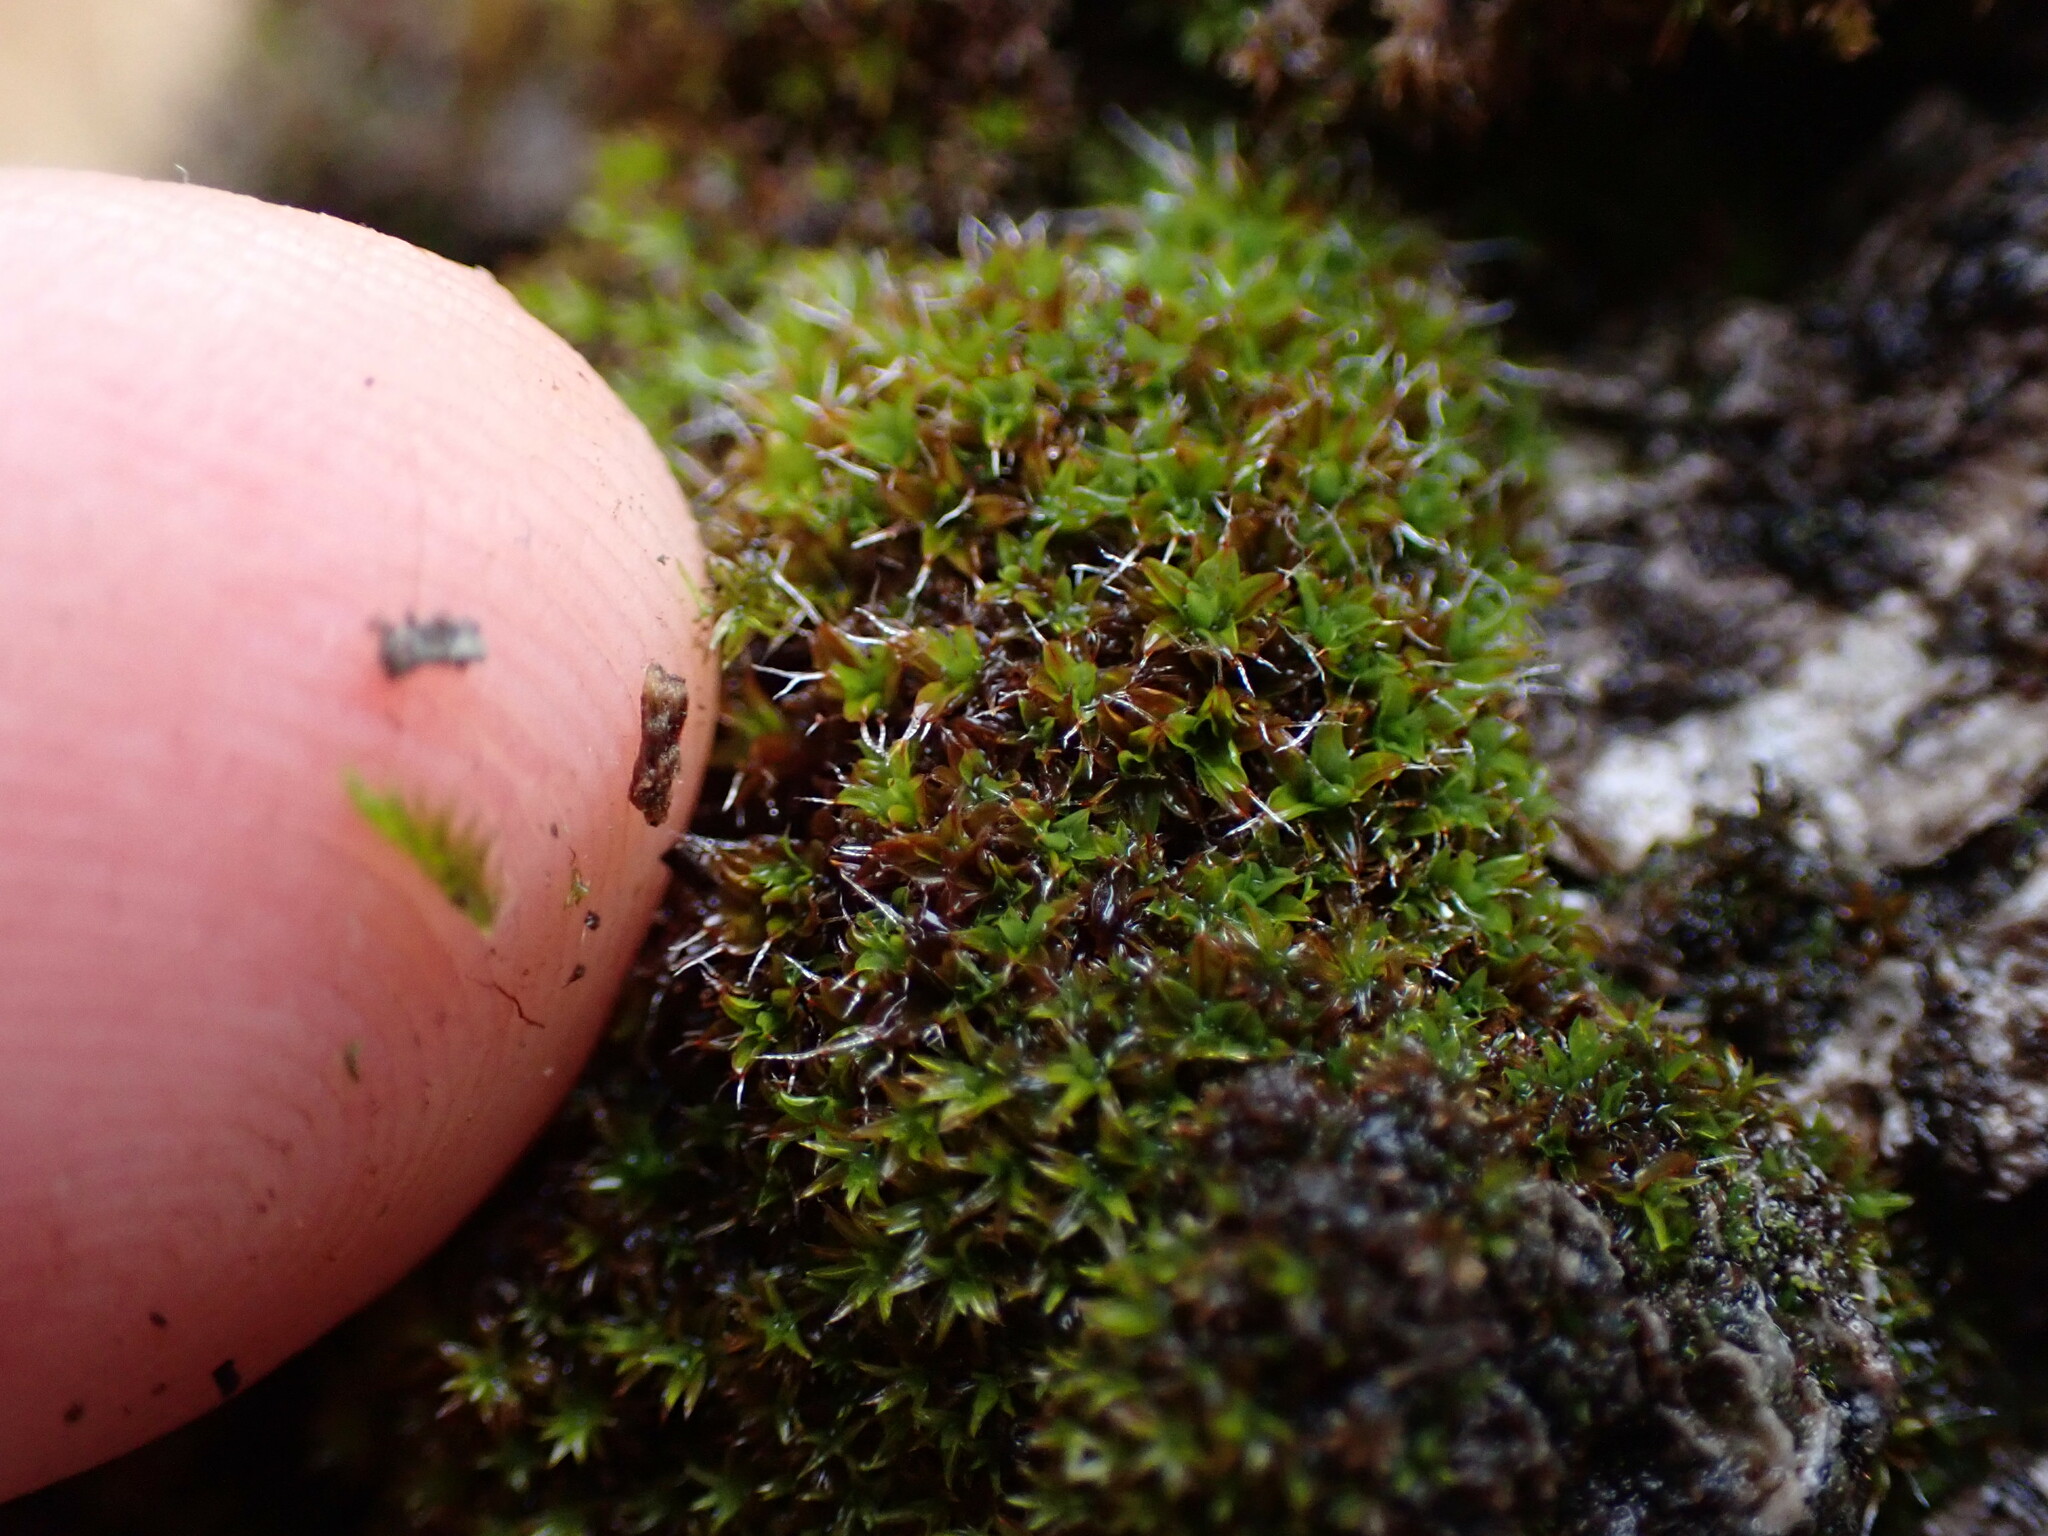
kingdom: Plantae
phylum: Bryophyta
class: Bryopsida
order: Pottiales
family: Pottiaceae
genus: Syntrichia
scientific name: Syntrichia laevipila
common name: Small hairy screw-moss
